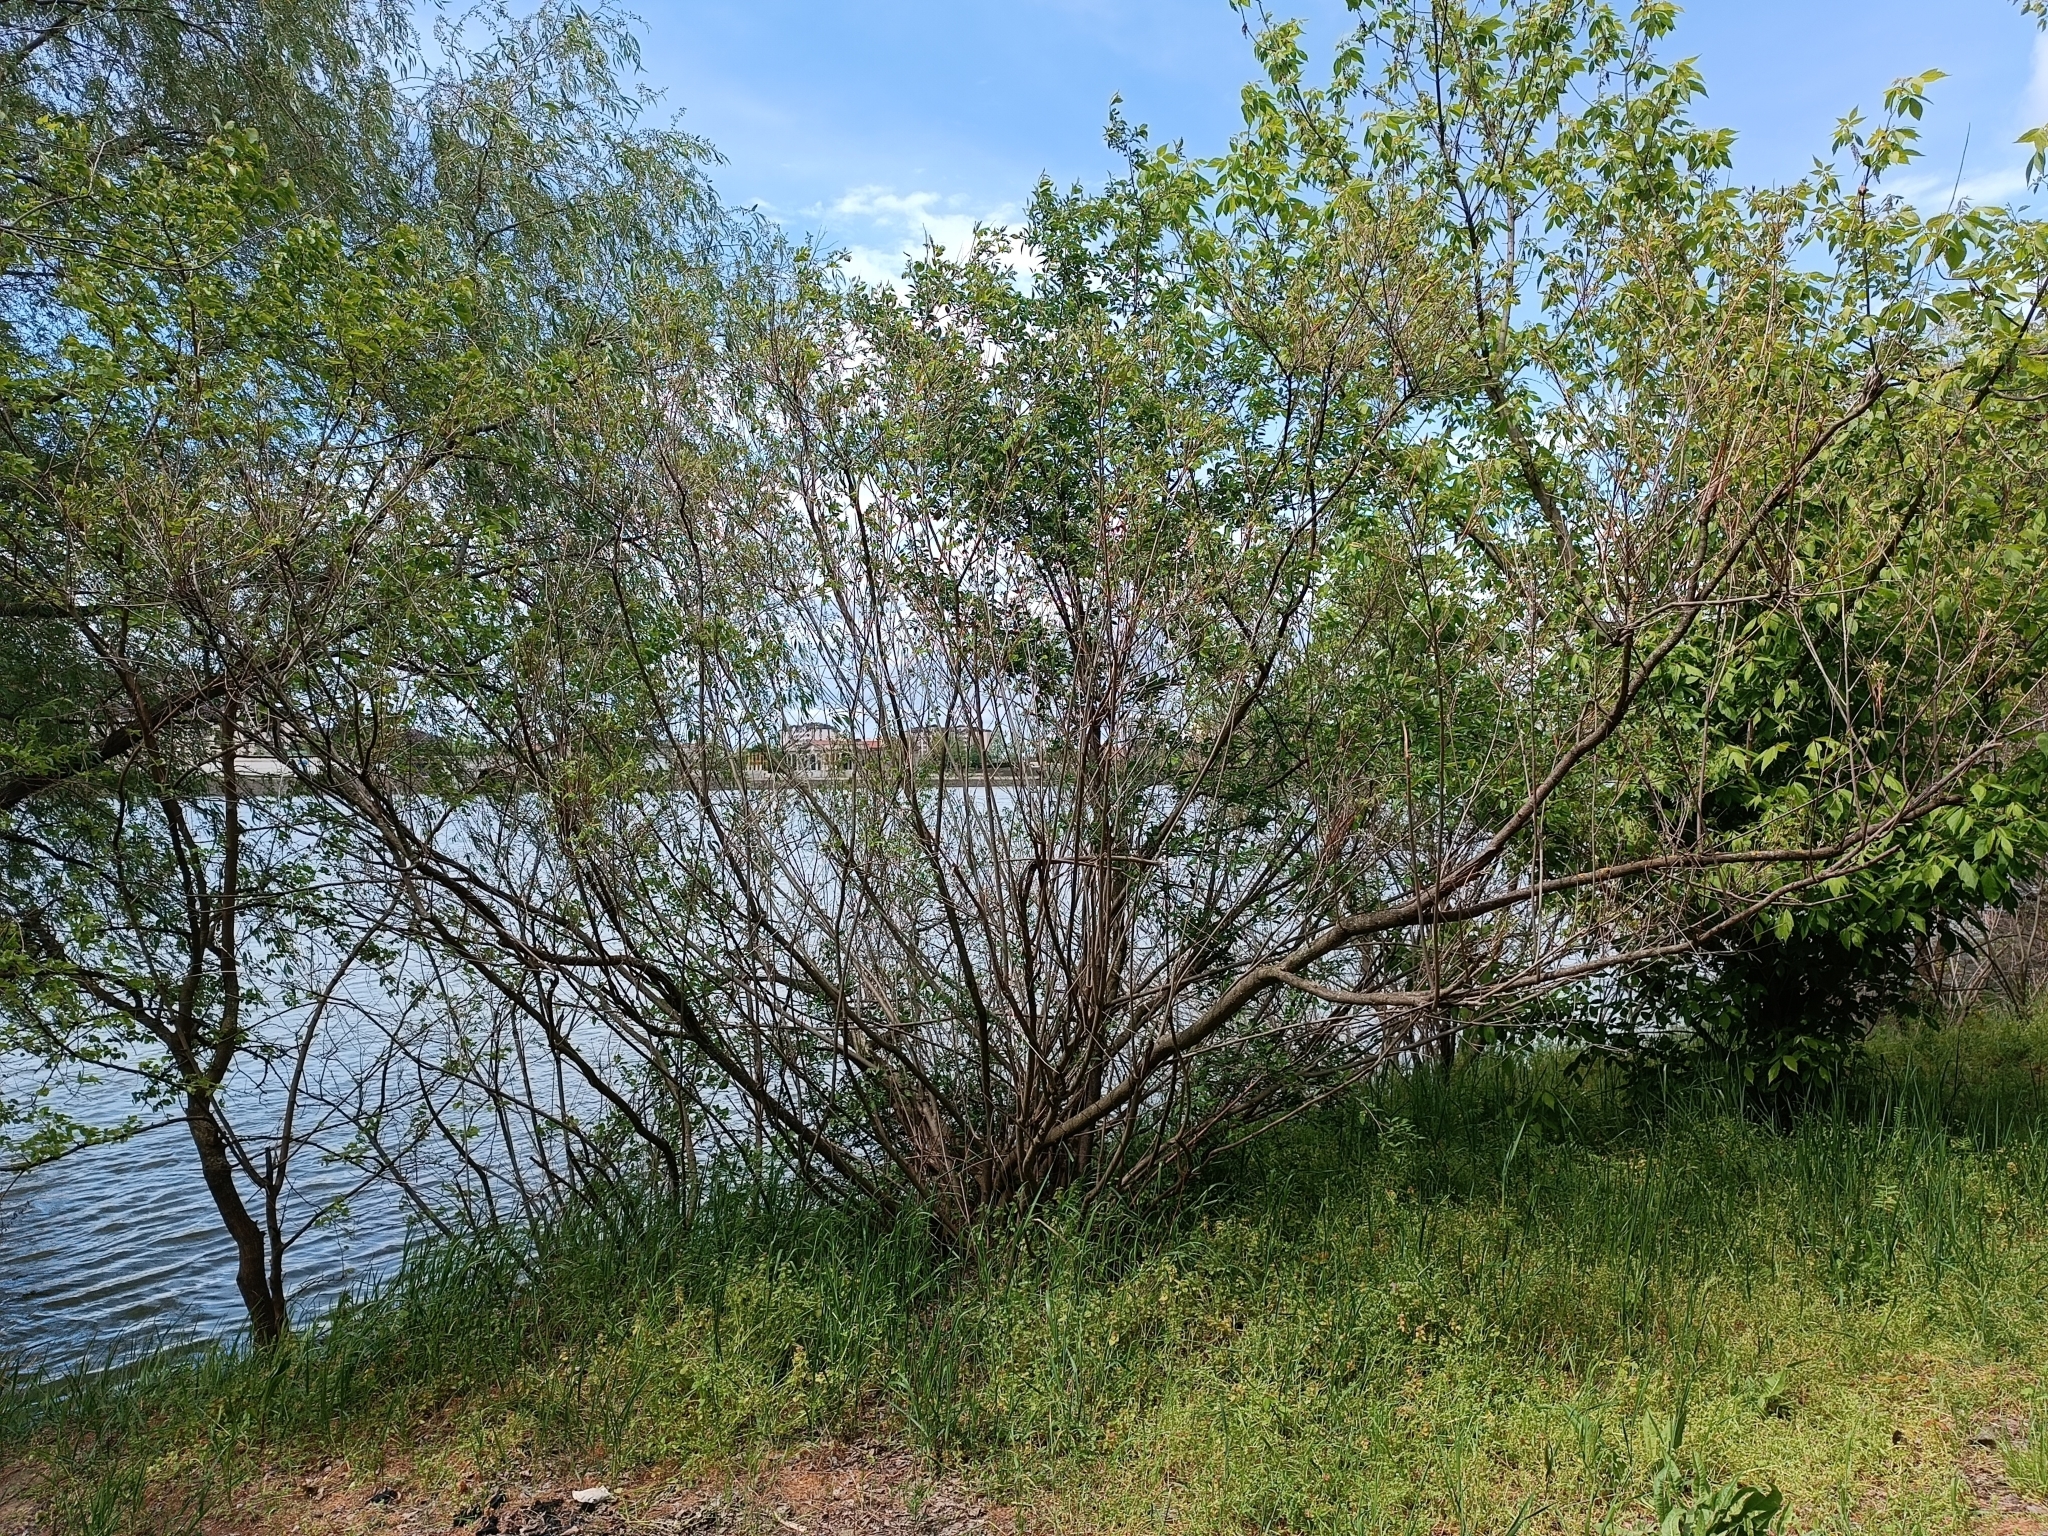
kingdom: Plantae
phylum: Tracheophyta
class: Magnoliopsida
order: Fabales
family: Fabaceae
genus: Amorpha
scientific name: Amorpha fruticosa
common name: False indigo
